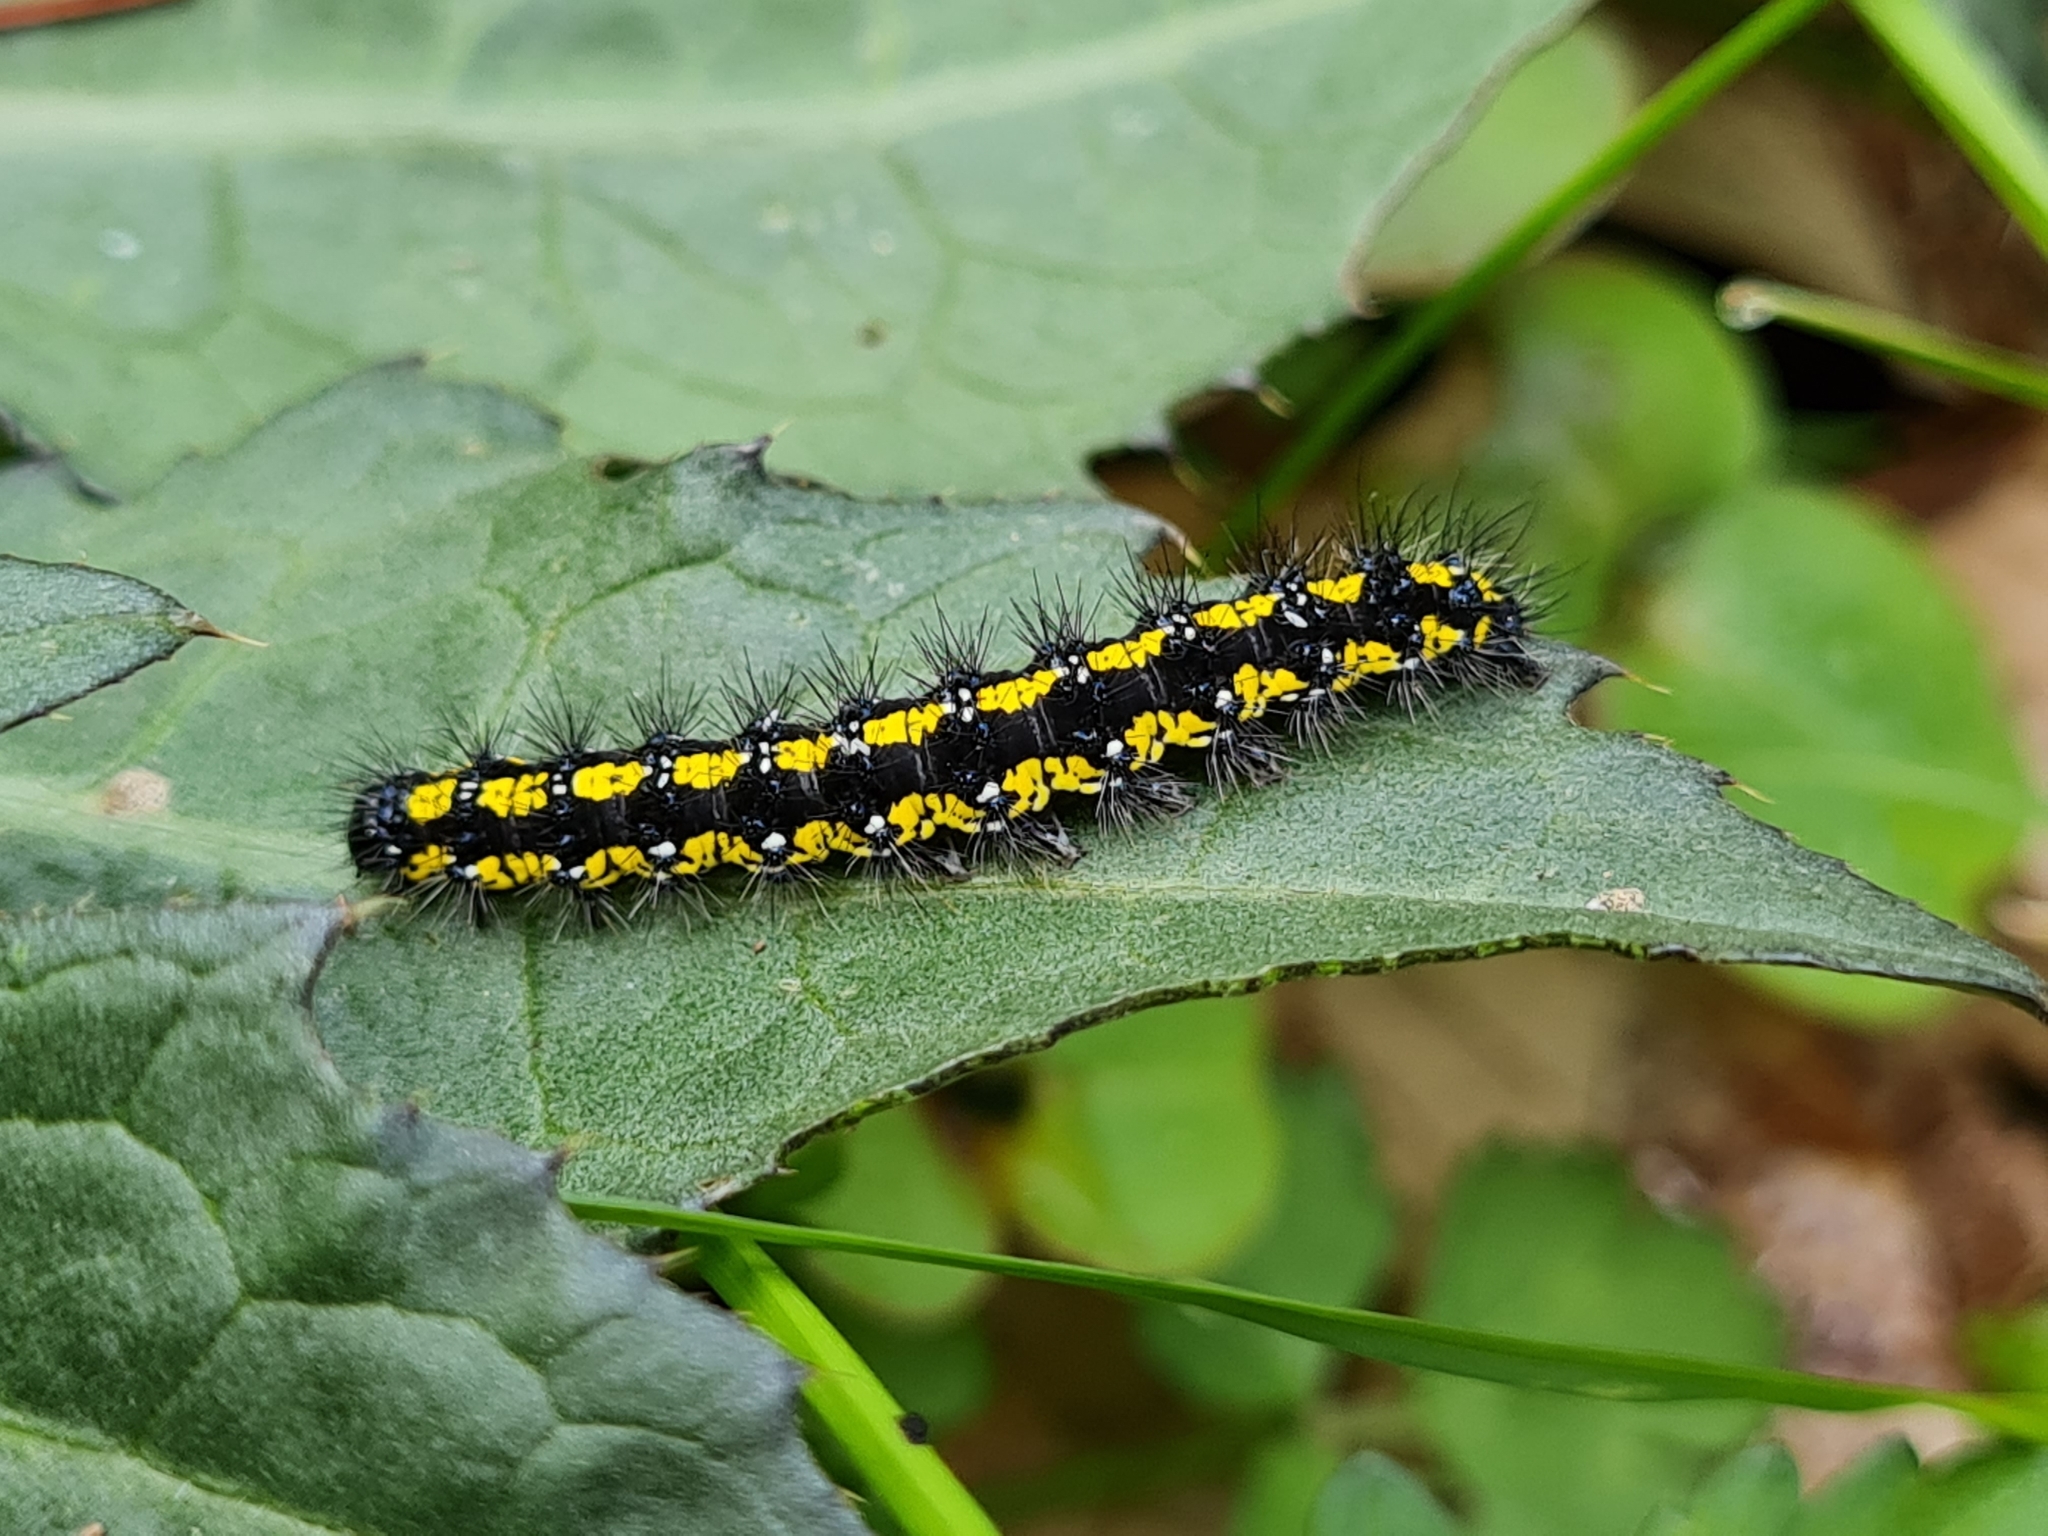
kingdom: Animalia
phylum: Arthropoda
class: Insecta
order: Lepidoptera
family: Erebidae
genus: Callimorpha
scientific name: Callimorpha dominula
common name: Scarlet tiger
